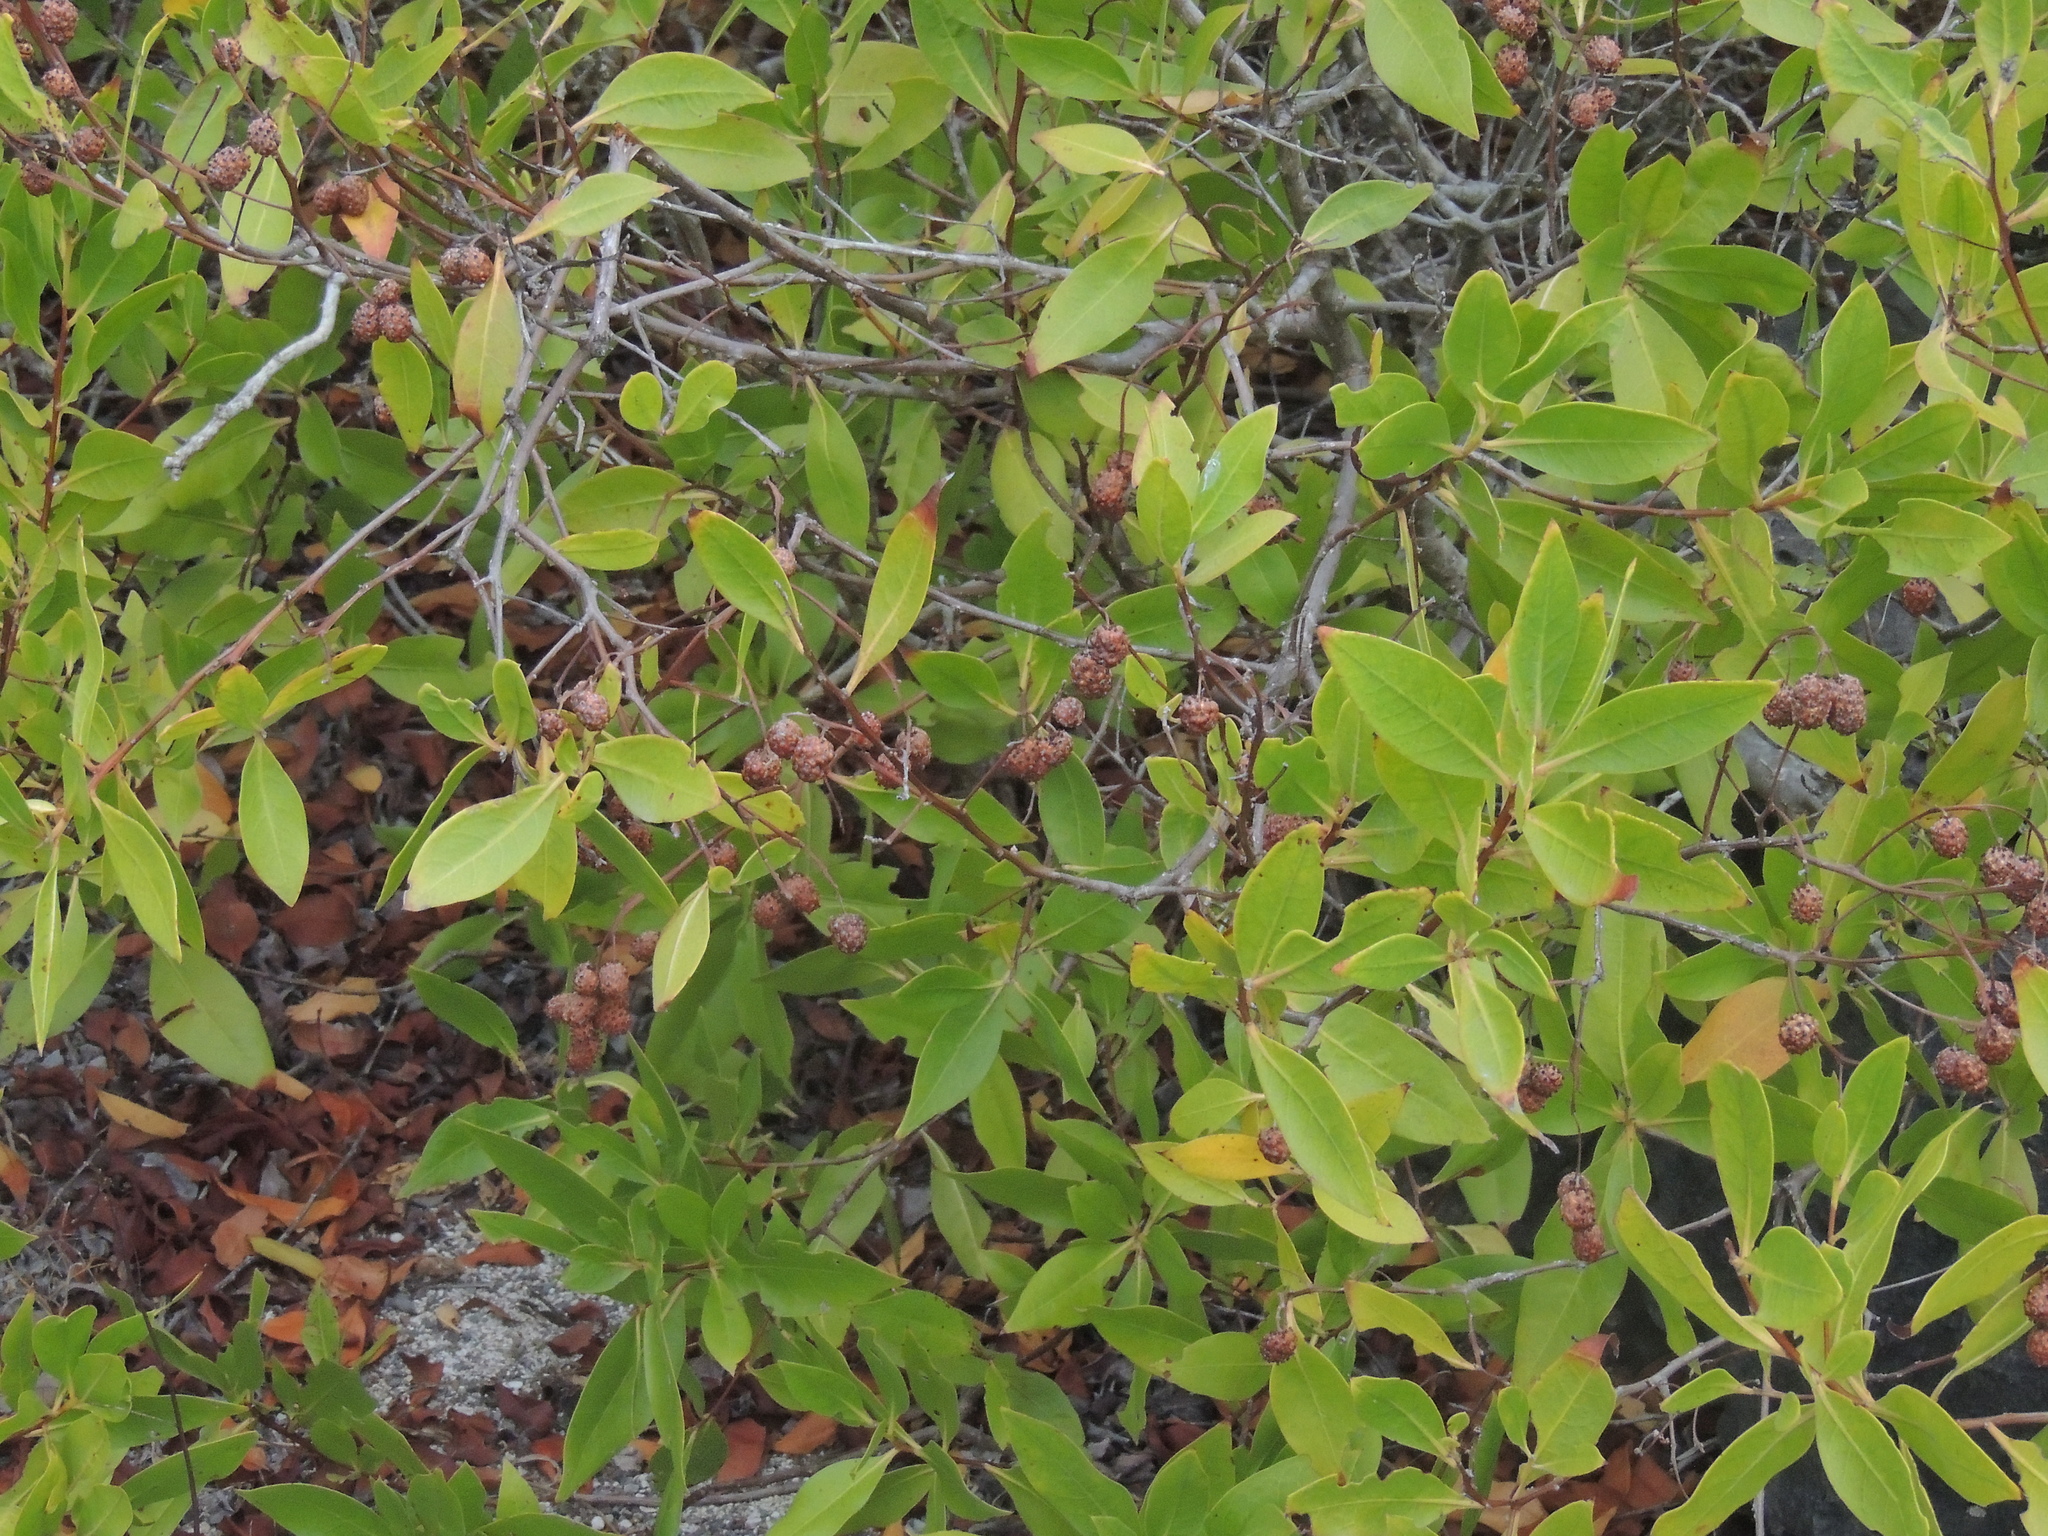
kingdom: Plantae
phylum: Tracheophyta
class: Magnoliopsida
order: Myrtales
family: Combretaceae
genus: Conocarpus
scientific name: Conocarpus erectus
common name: Button mangrove
